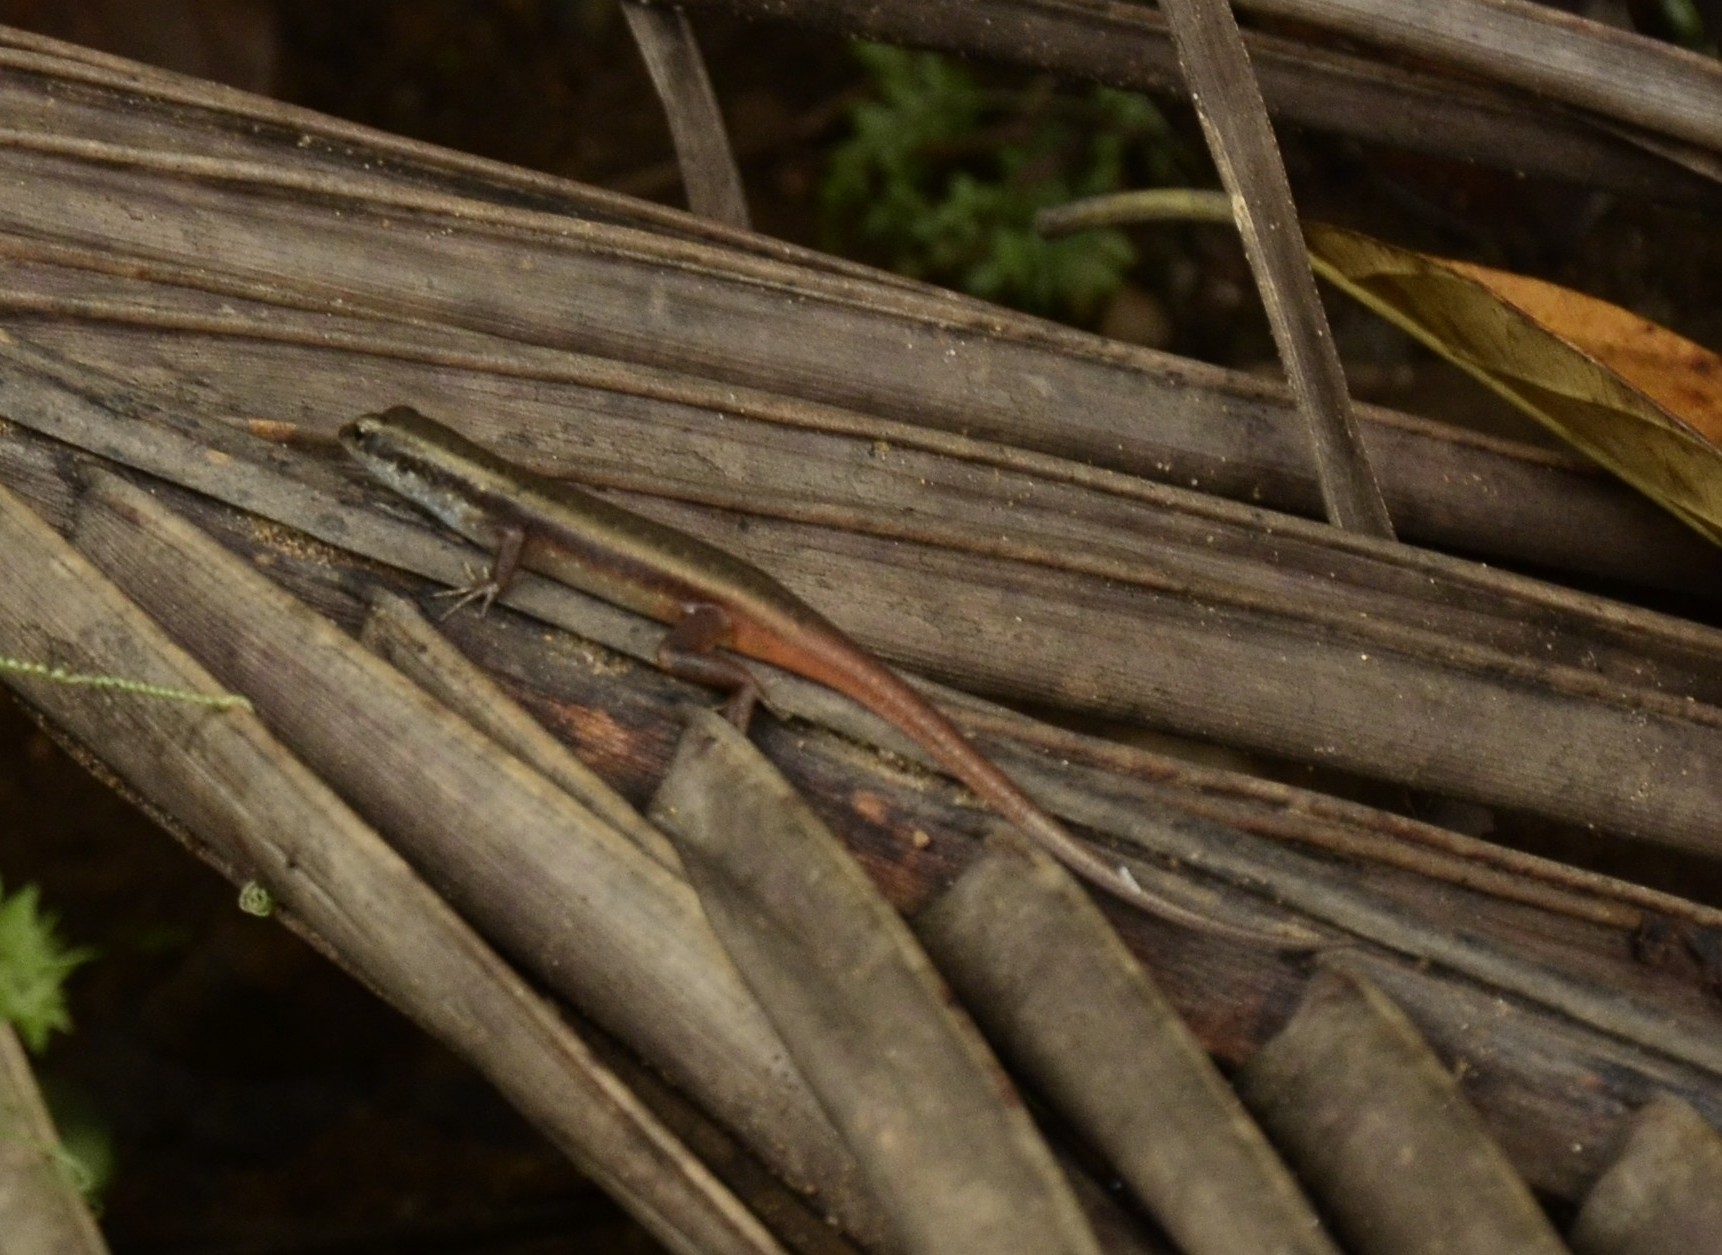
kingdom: Animalia
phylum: Chordata
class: Squamata
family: Scincidae
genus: Sphenomorphus
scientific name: Sphenomorphus dussumieri
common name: Dussumier's forest skink
